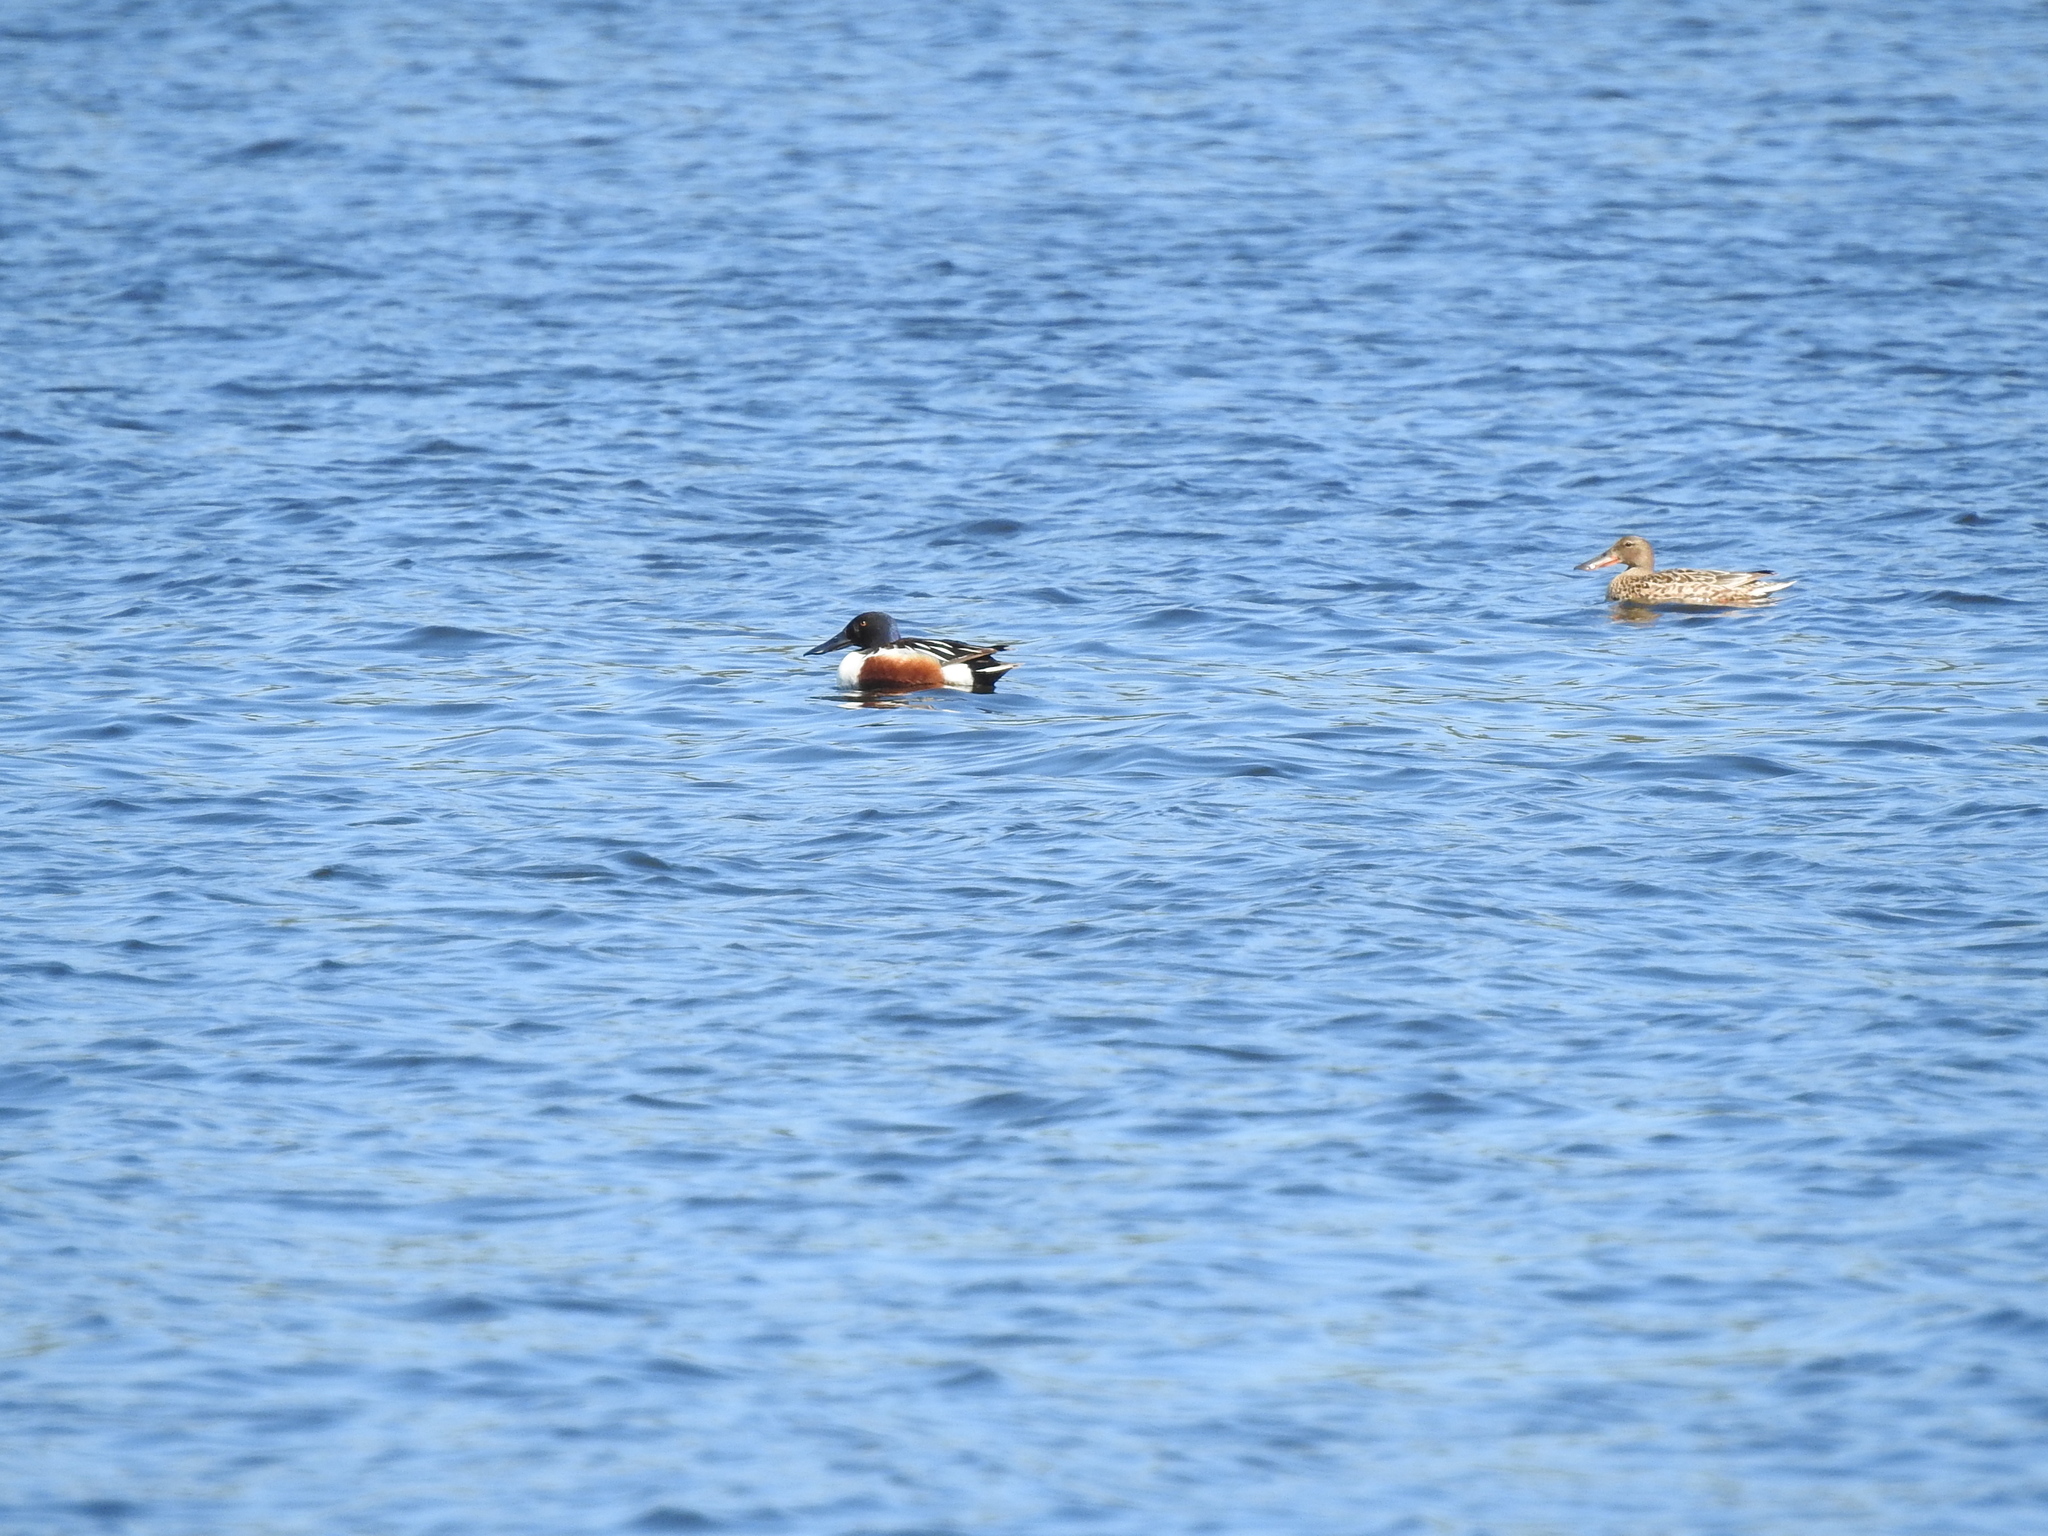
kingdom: Animalia
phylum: Chordata
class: Aves
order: Anseriformes
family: Anatidae
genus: Spatula
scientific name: Spatula clypeata
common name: Northern shoveler
